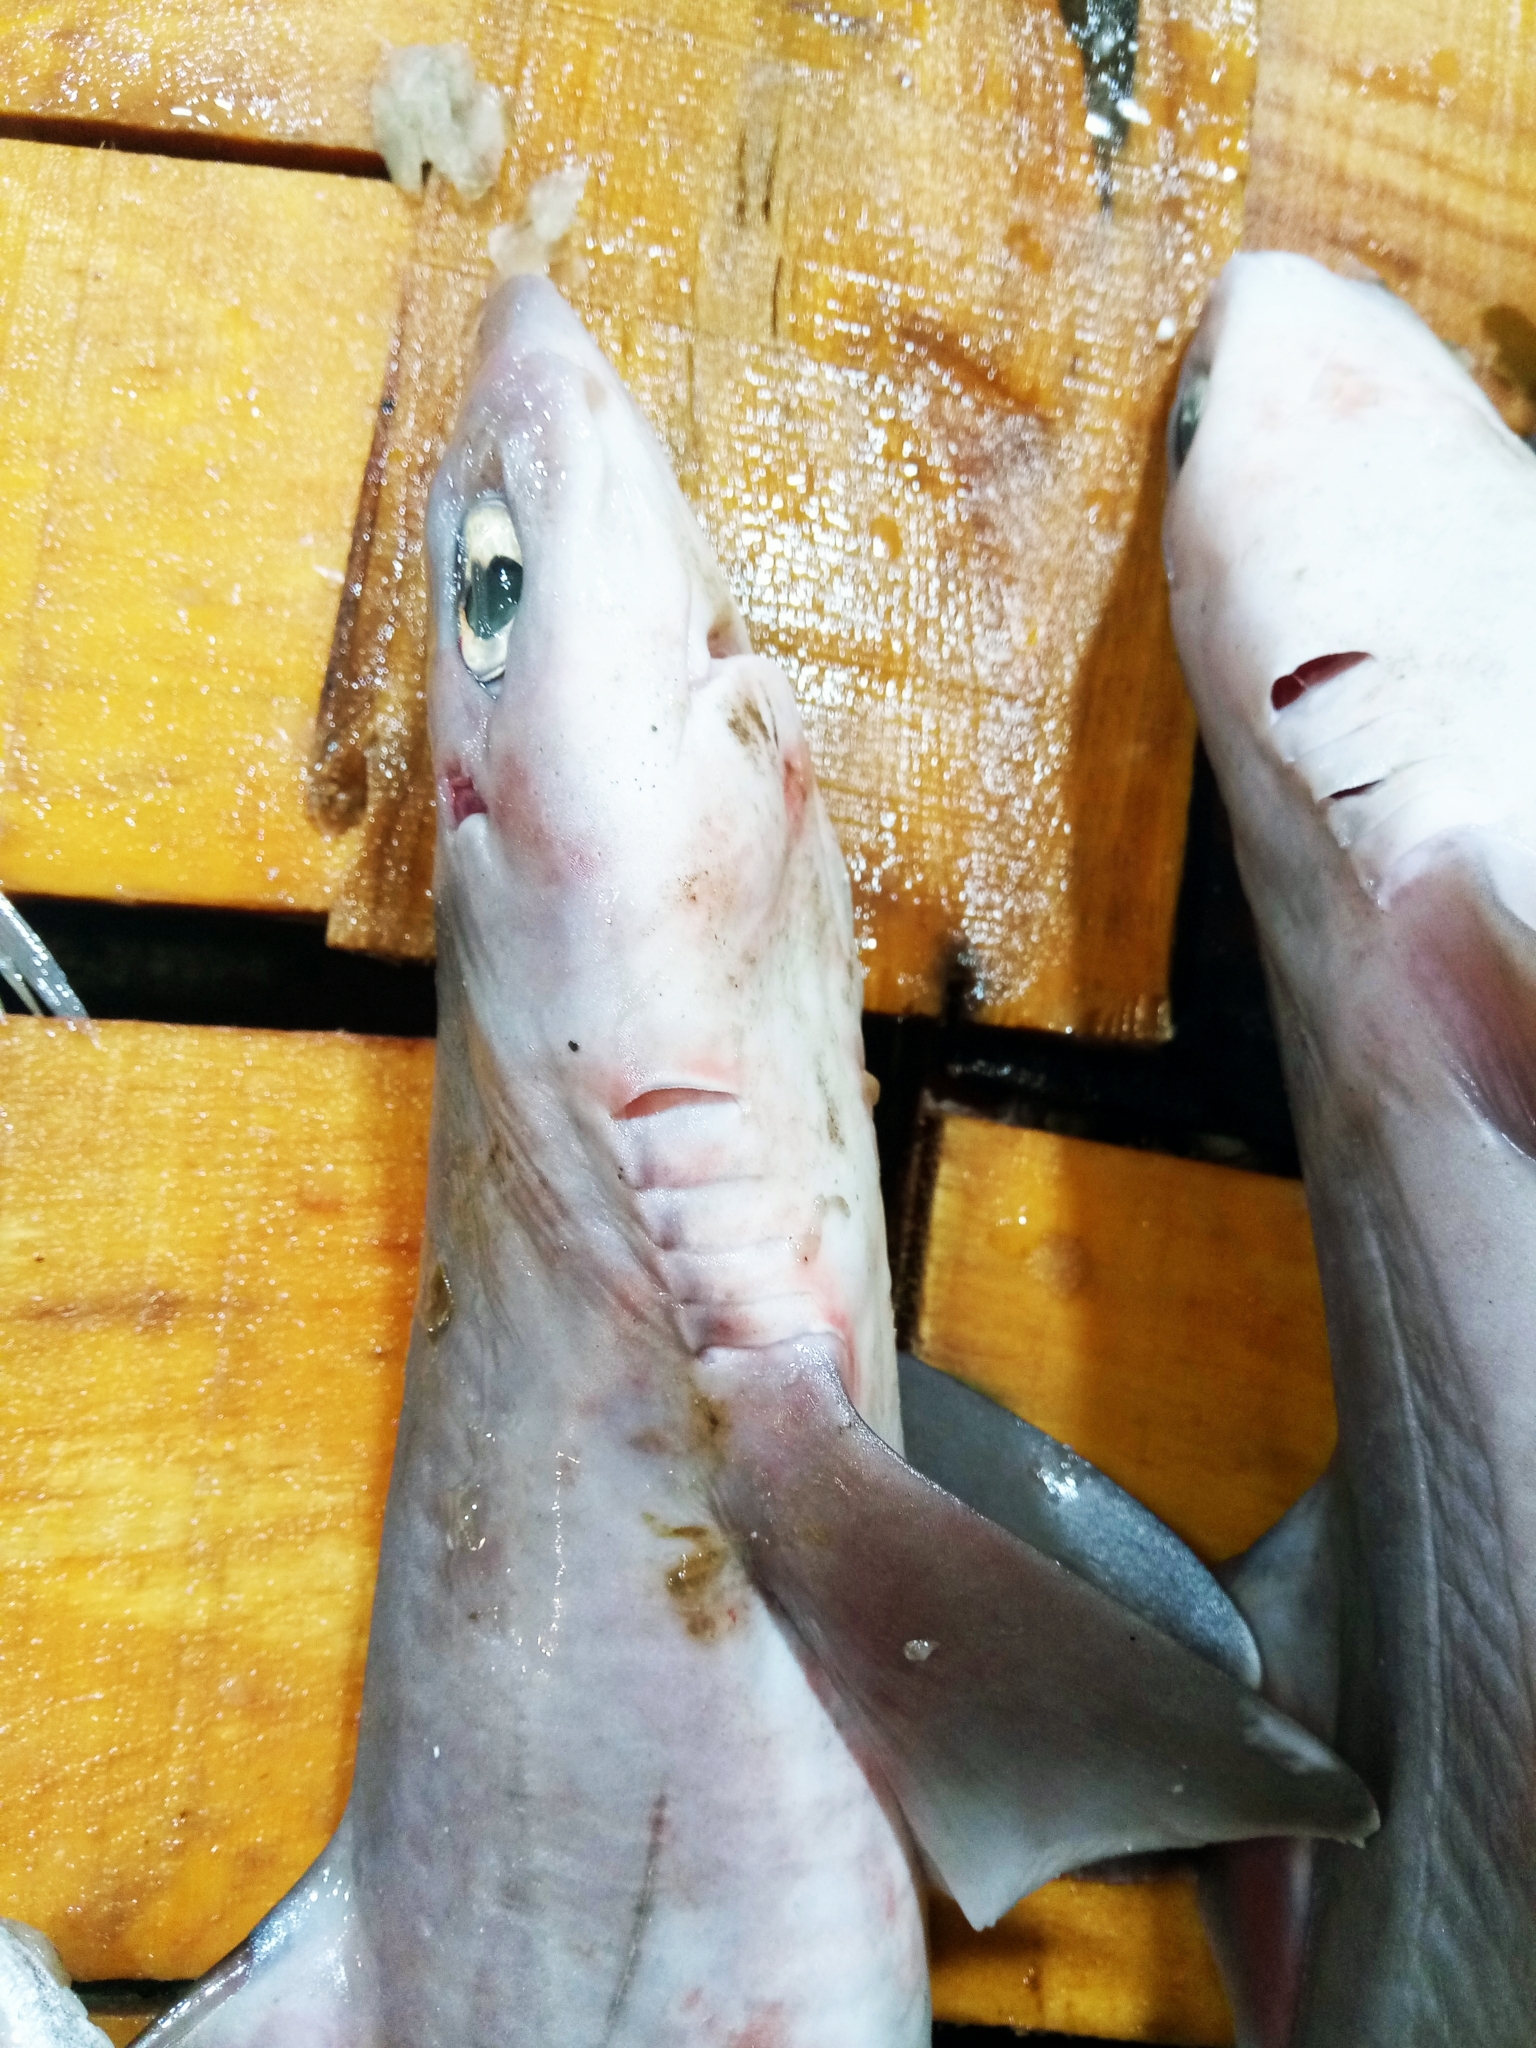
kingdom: Animalia
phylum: Chordata
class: Elasmobranchii
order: Squaliformes
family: Squalidae
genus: Squalus
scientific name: Squalus blainville
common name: Longnose spurdog
